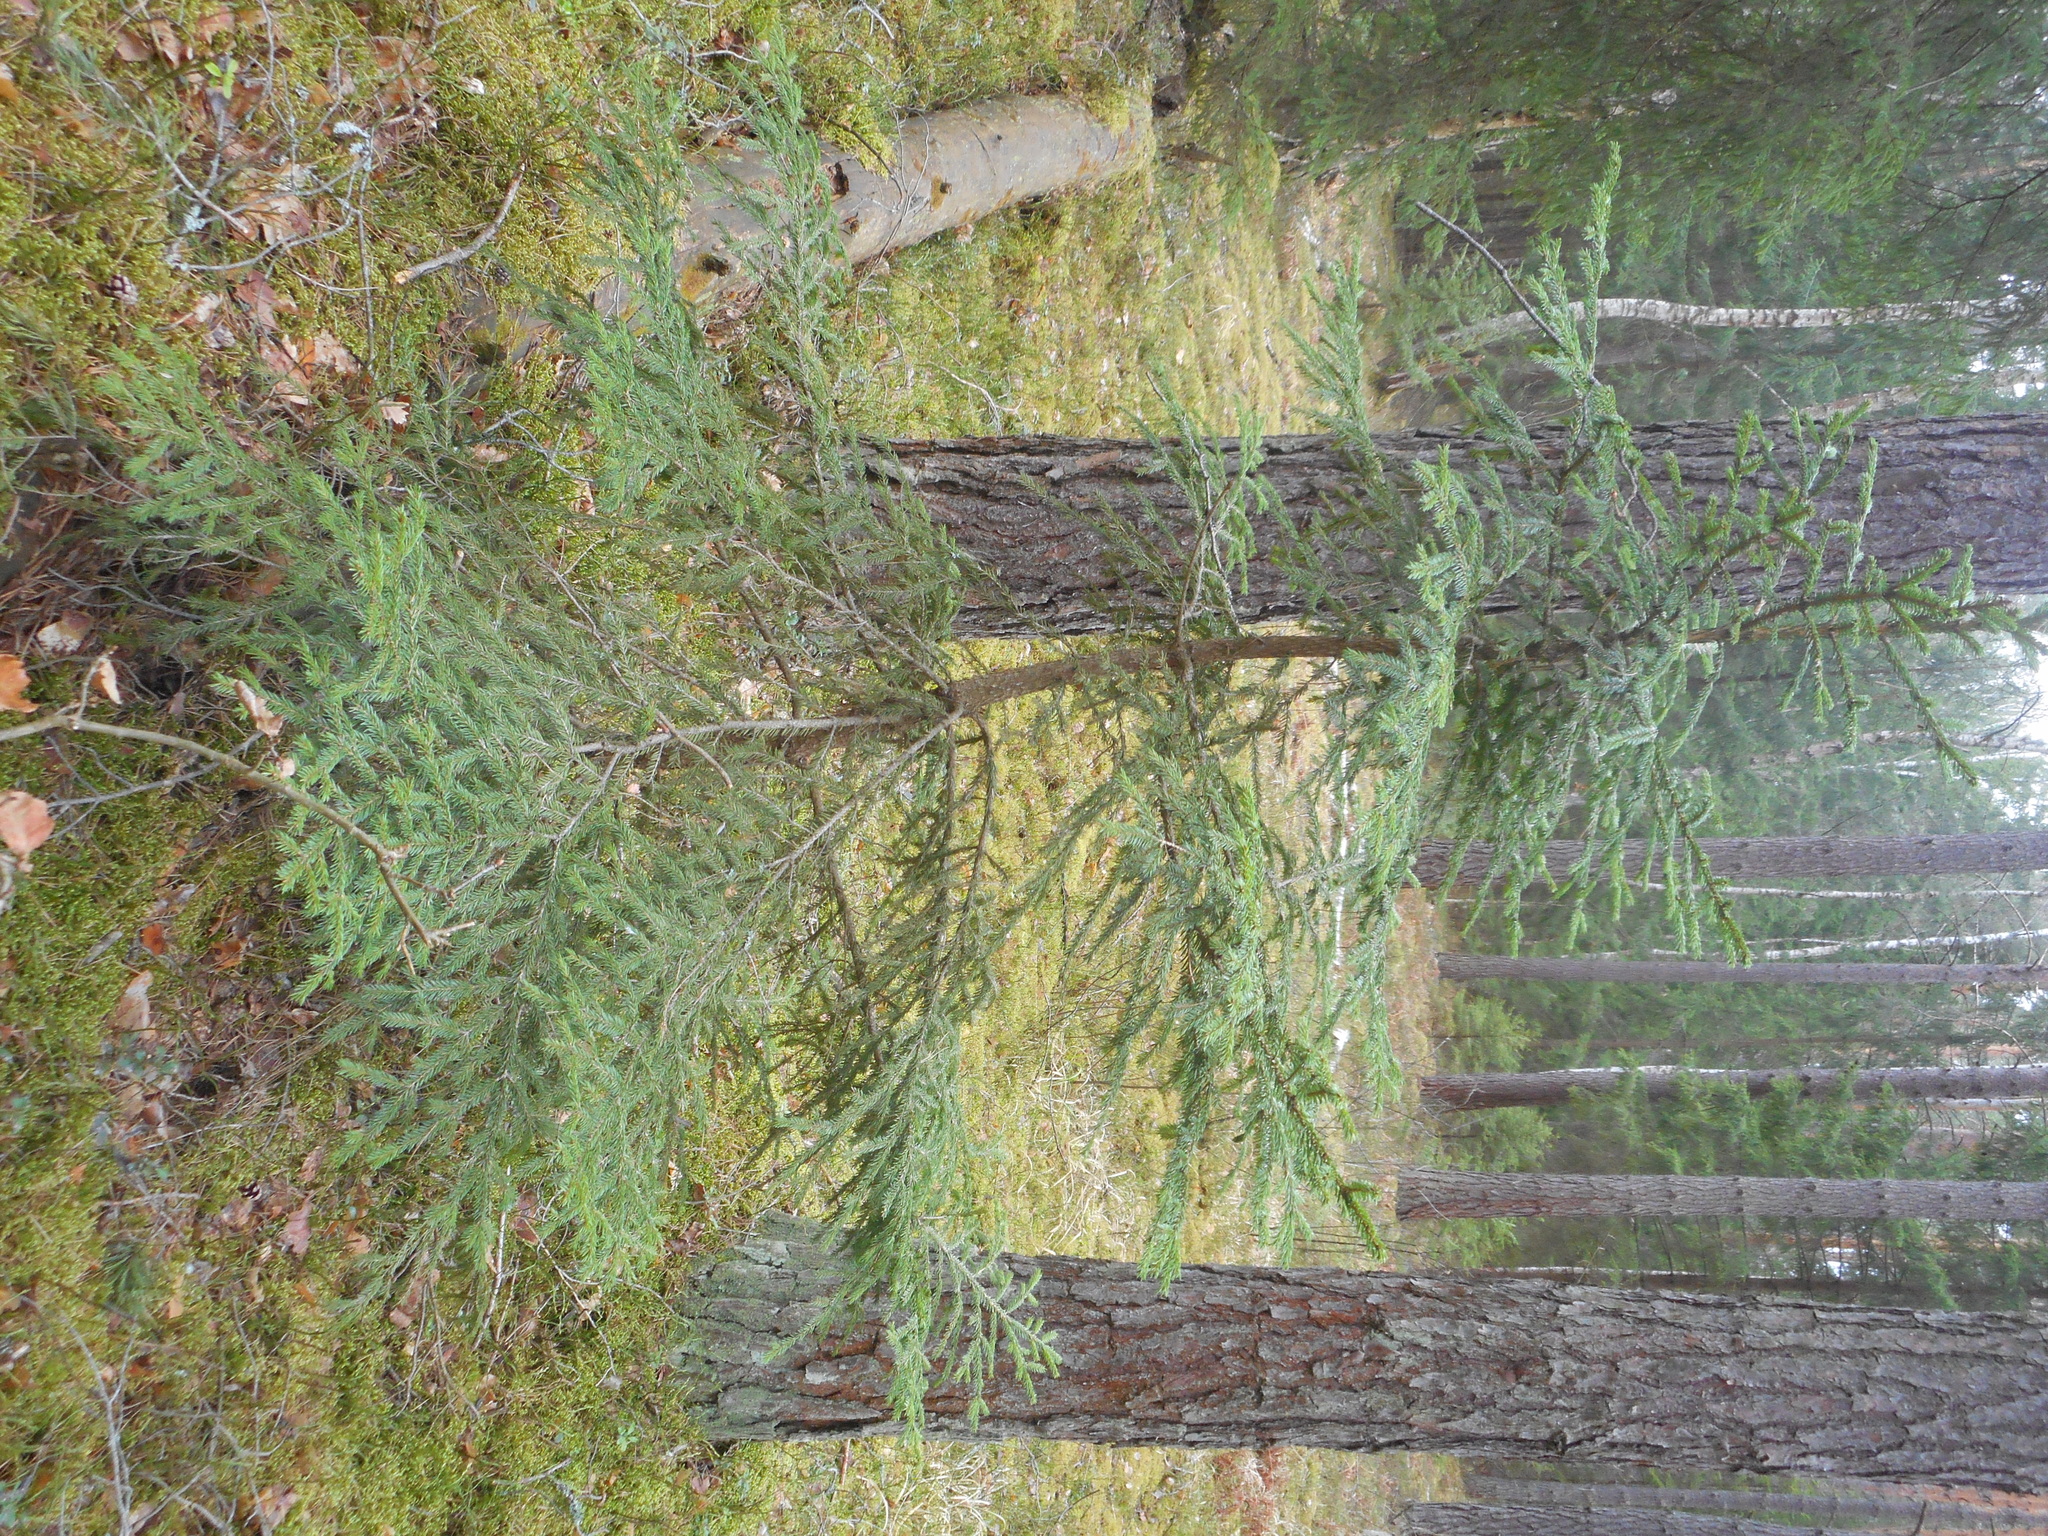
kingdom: Plantae
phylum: Tracheophyta
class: Pinopsida
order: Pinales
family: Pinaceae
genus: Picea
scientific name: Picea abies
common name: Norway spruce
